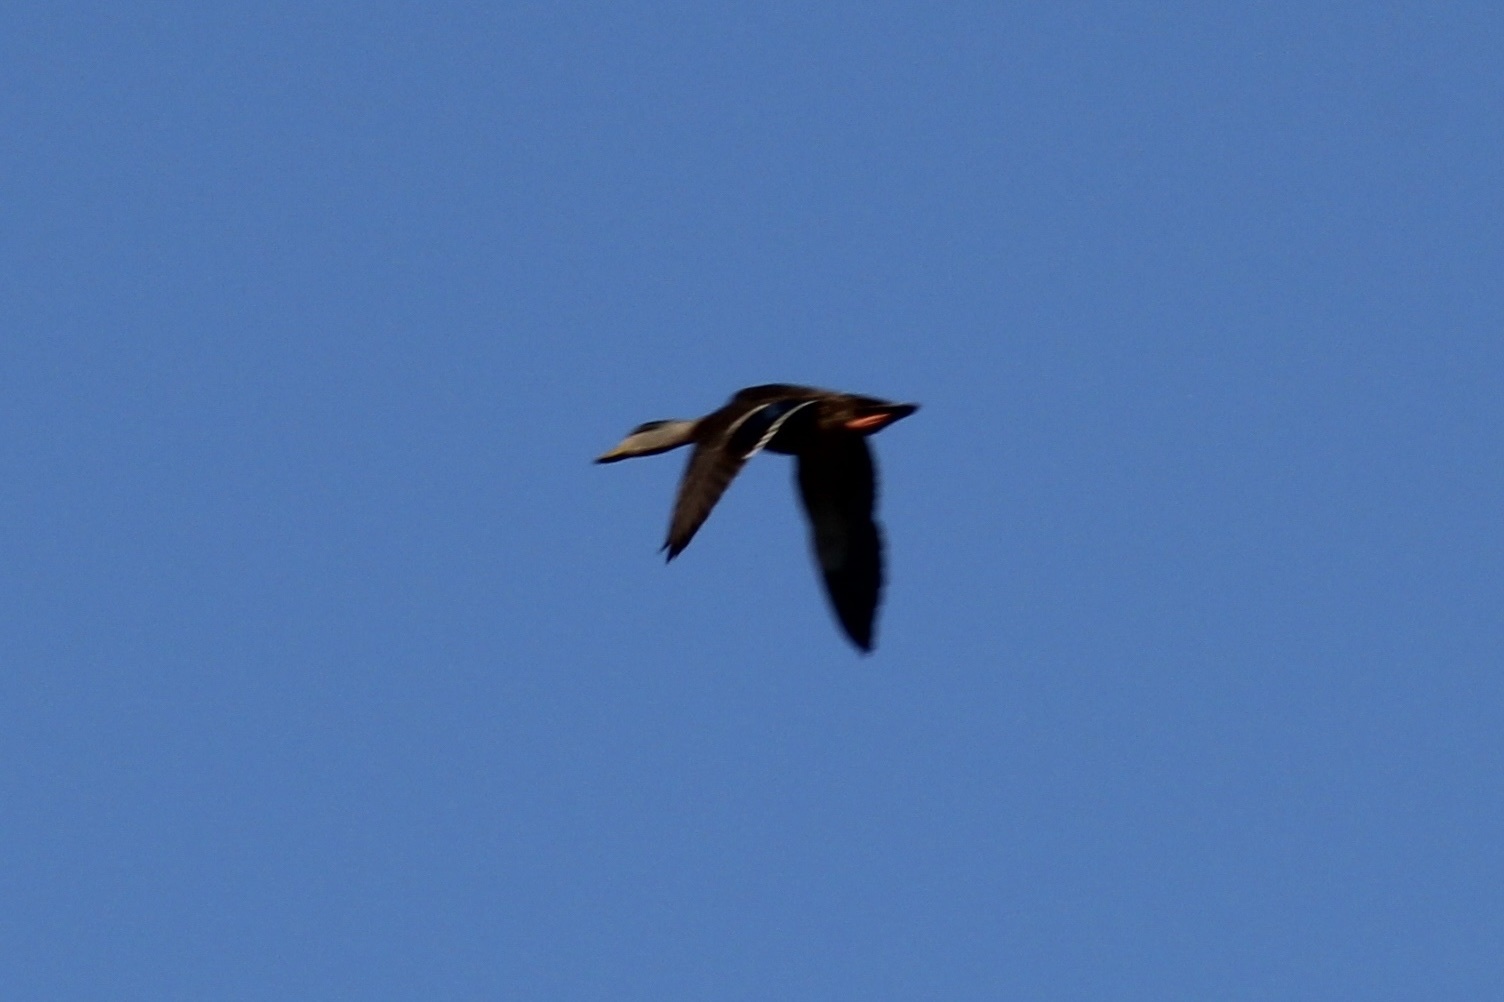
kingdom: Animalia
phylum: Chordata
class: Aves
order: Anseriformes
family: Anatidae
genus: Anas
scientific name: Anas
